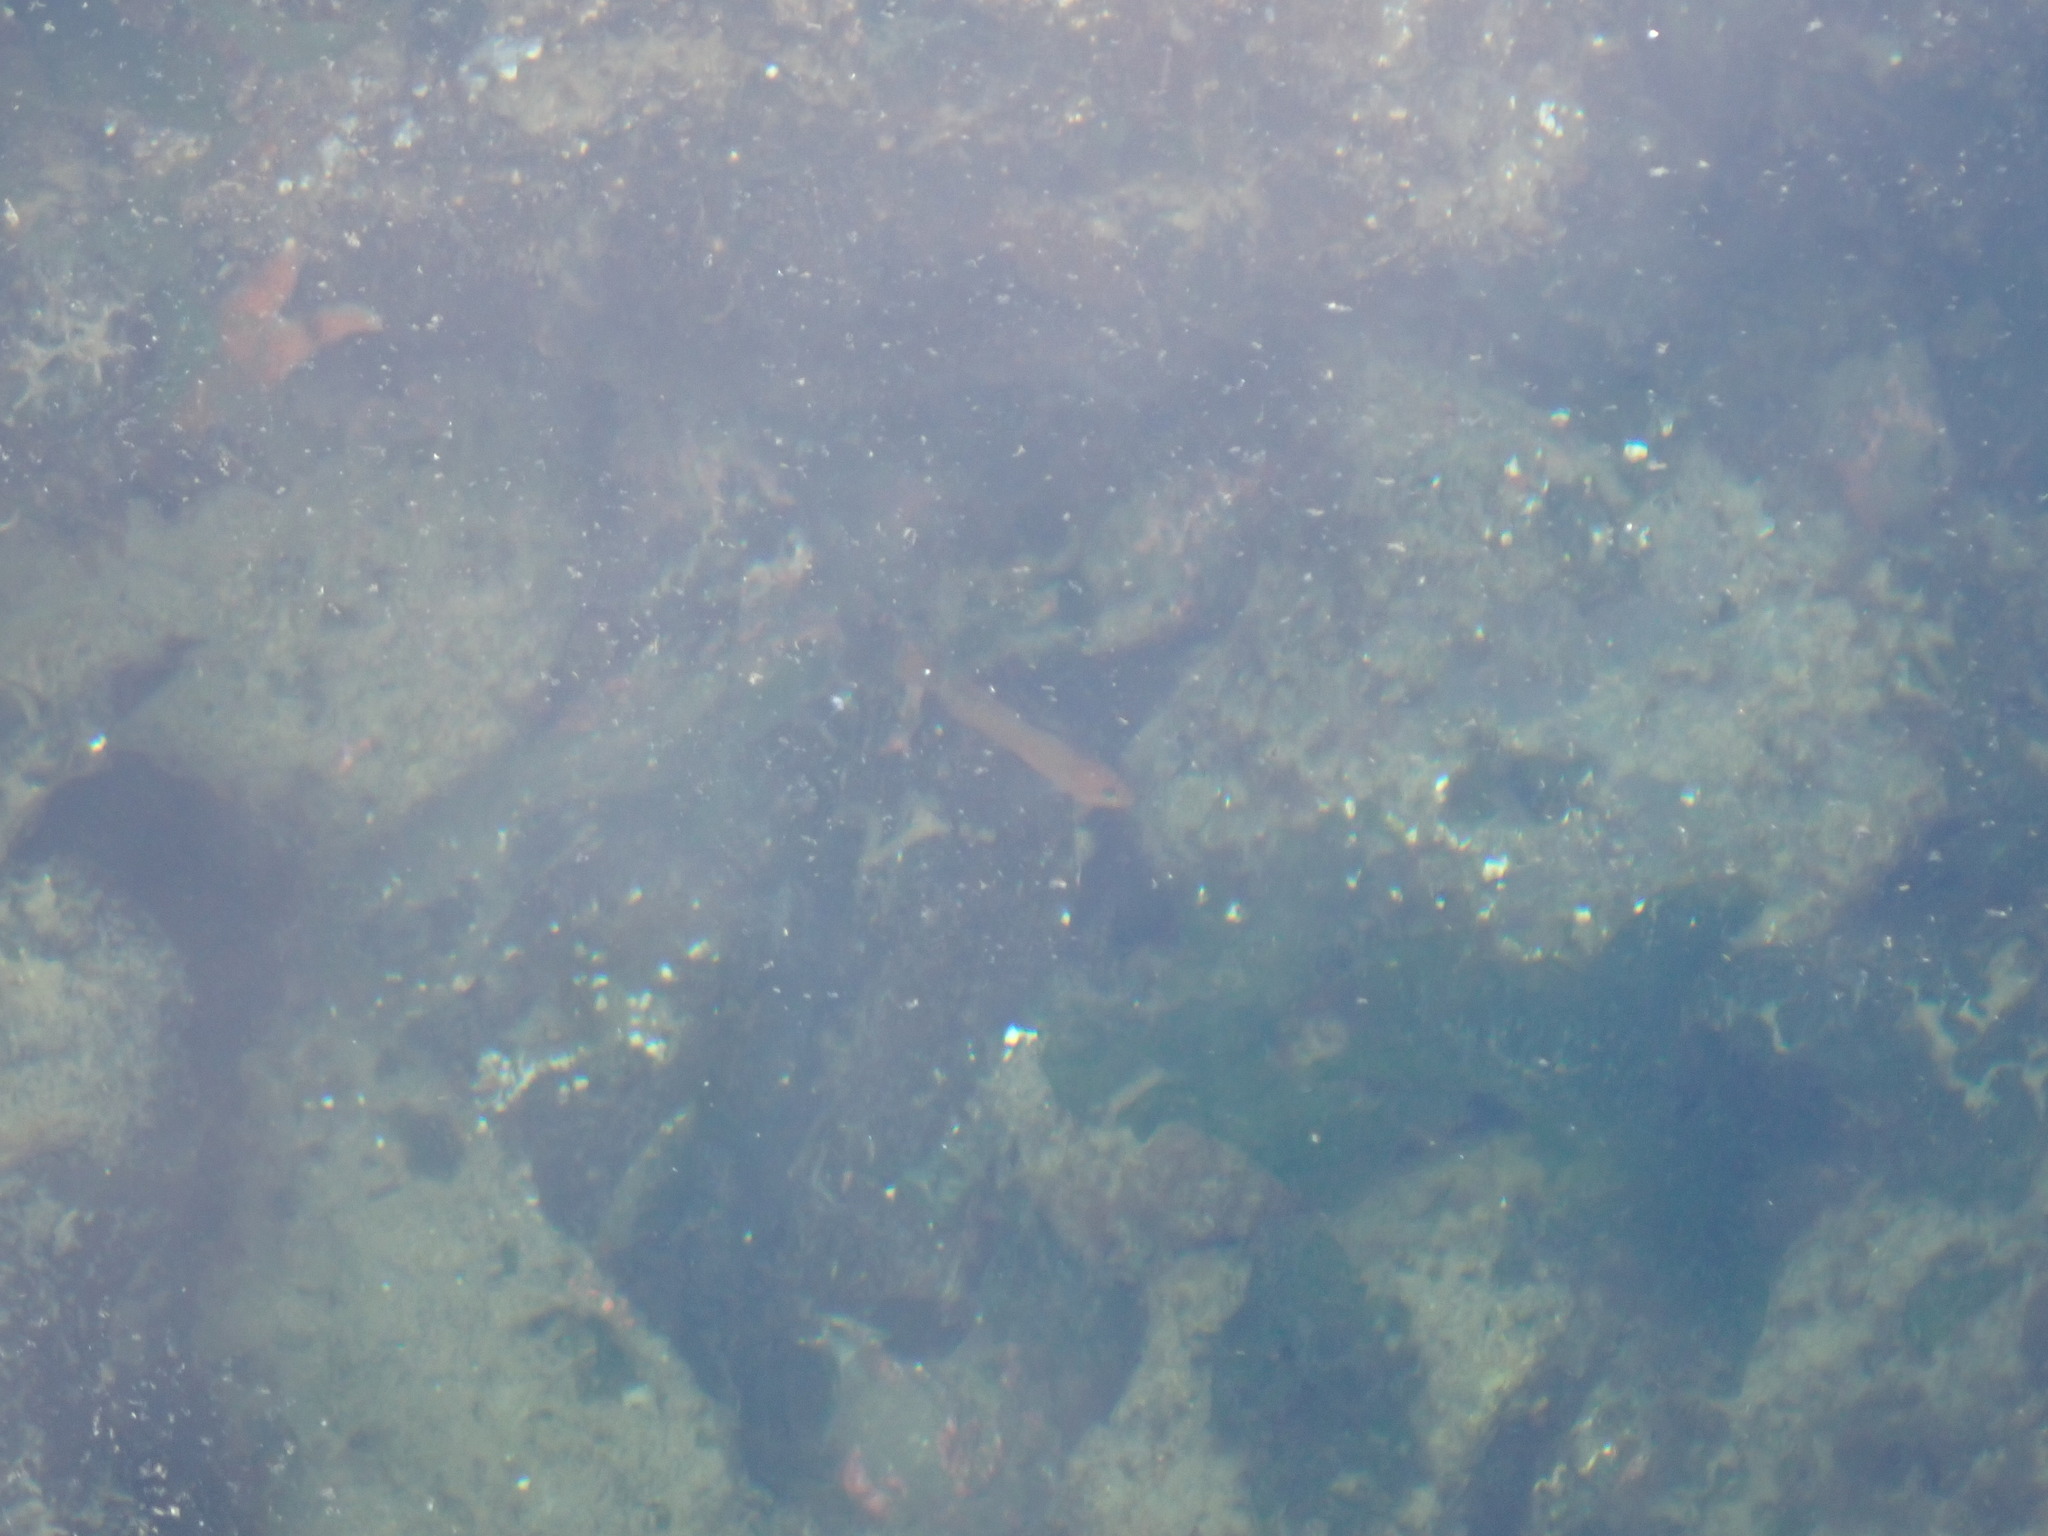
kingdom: Animalia
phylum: Chordata
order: Perciformes
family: Gobiidae
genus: Rhinogobiops
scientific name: Rhinogobiops nicholsii
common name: Blackeye goby
